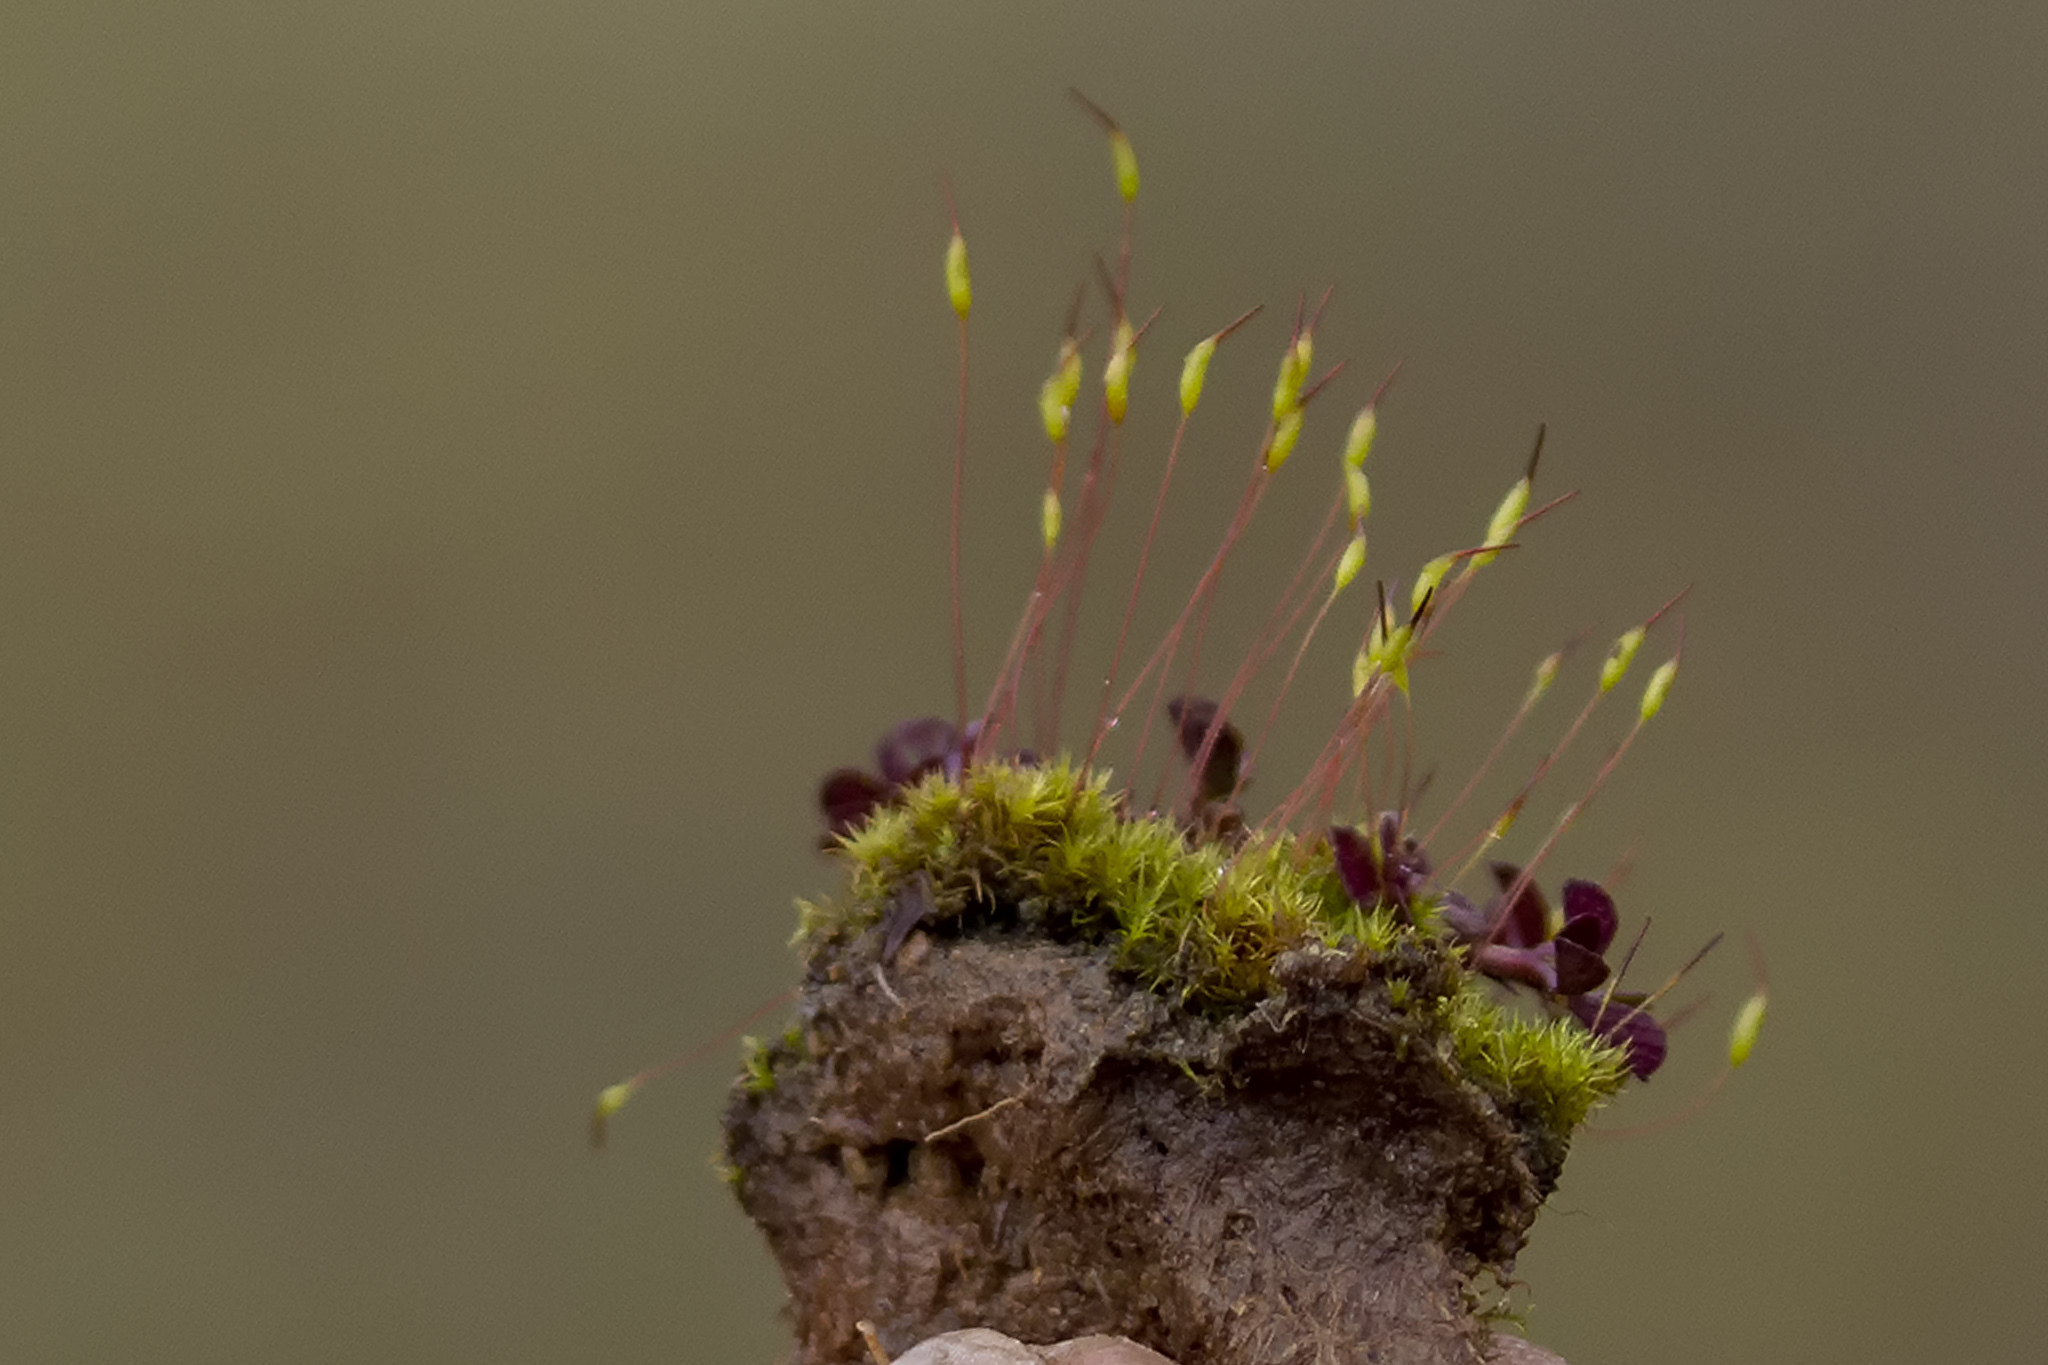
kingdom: Plantae
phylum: Bryophyta
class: Bryopsida
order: Dicranales
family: Ditrichaceae
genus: Ceratodon
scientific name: Ceratodon purpureus
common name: Redshank
